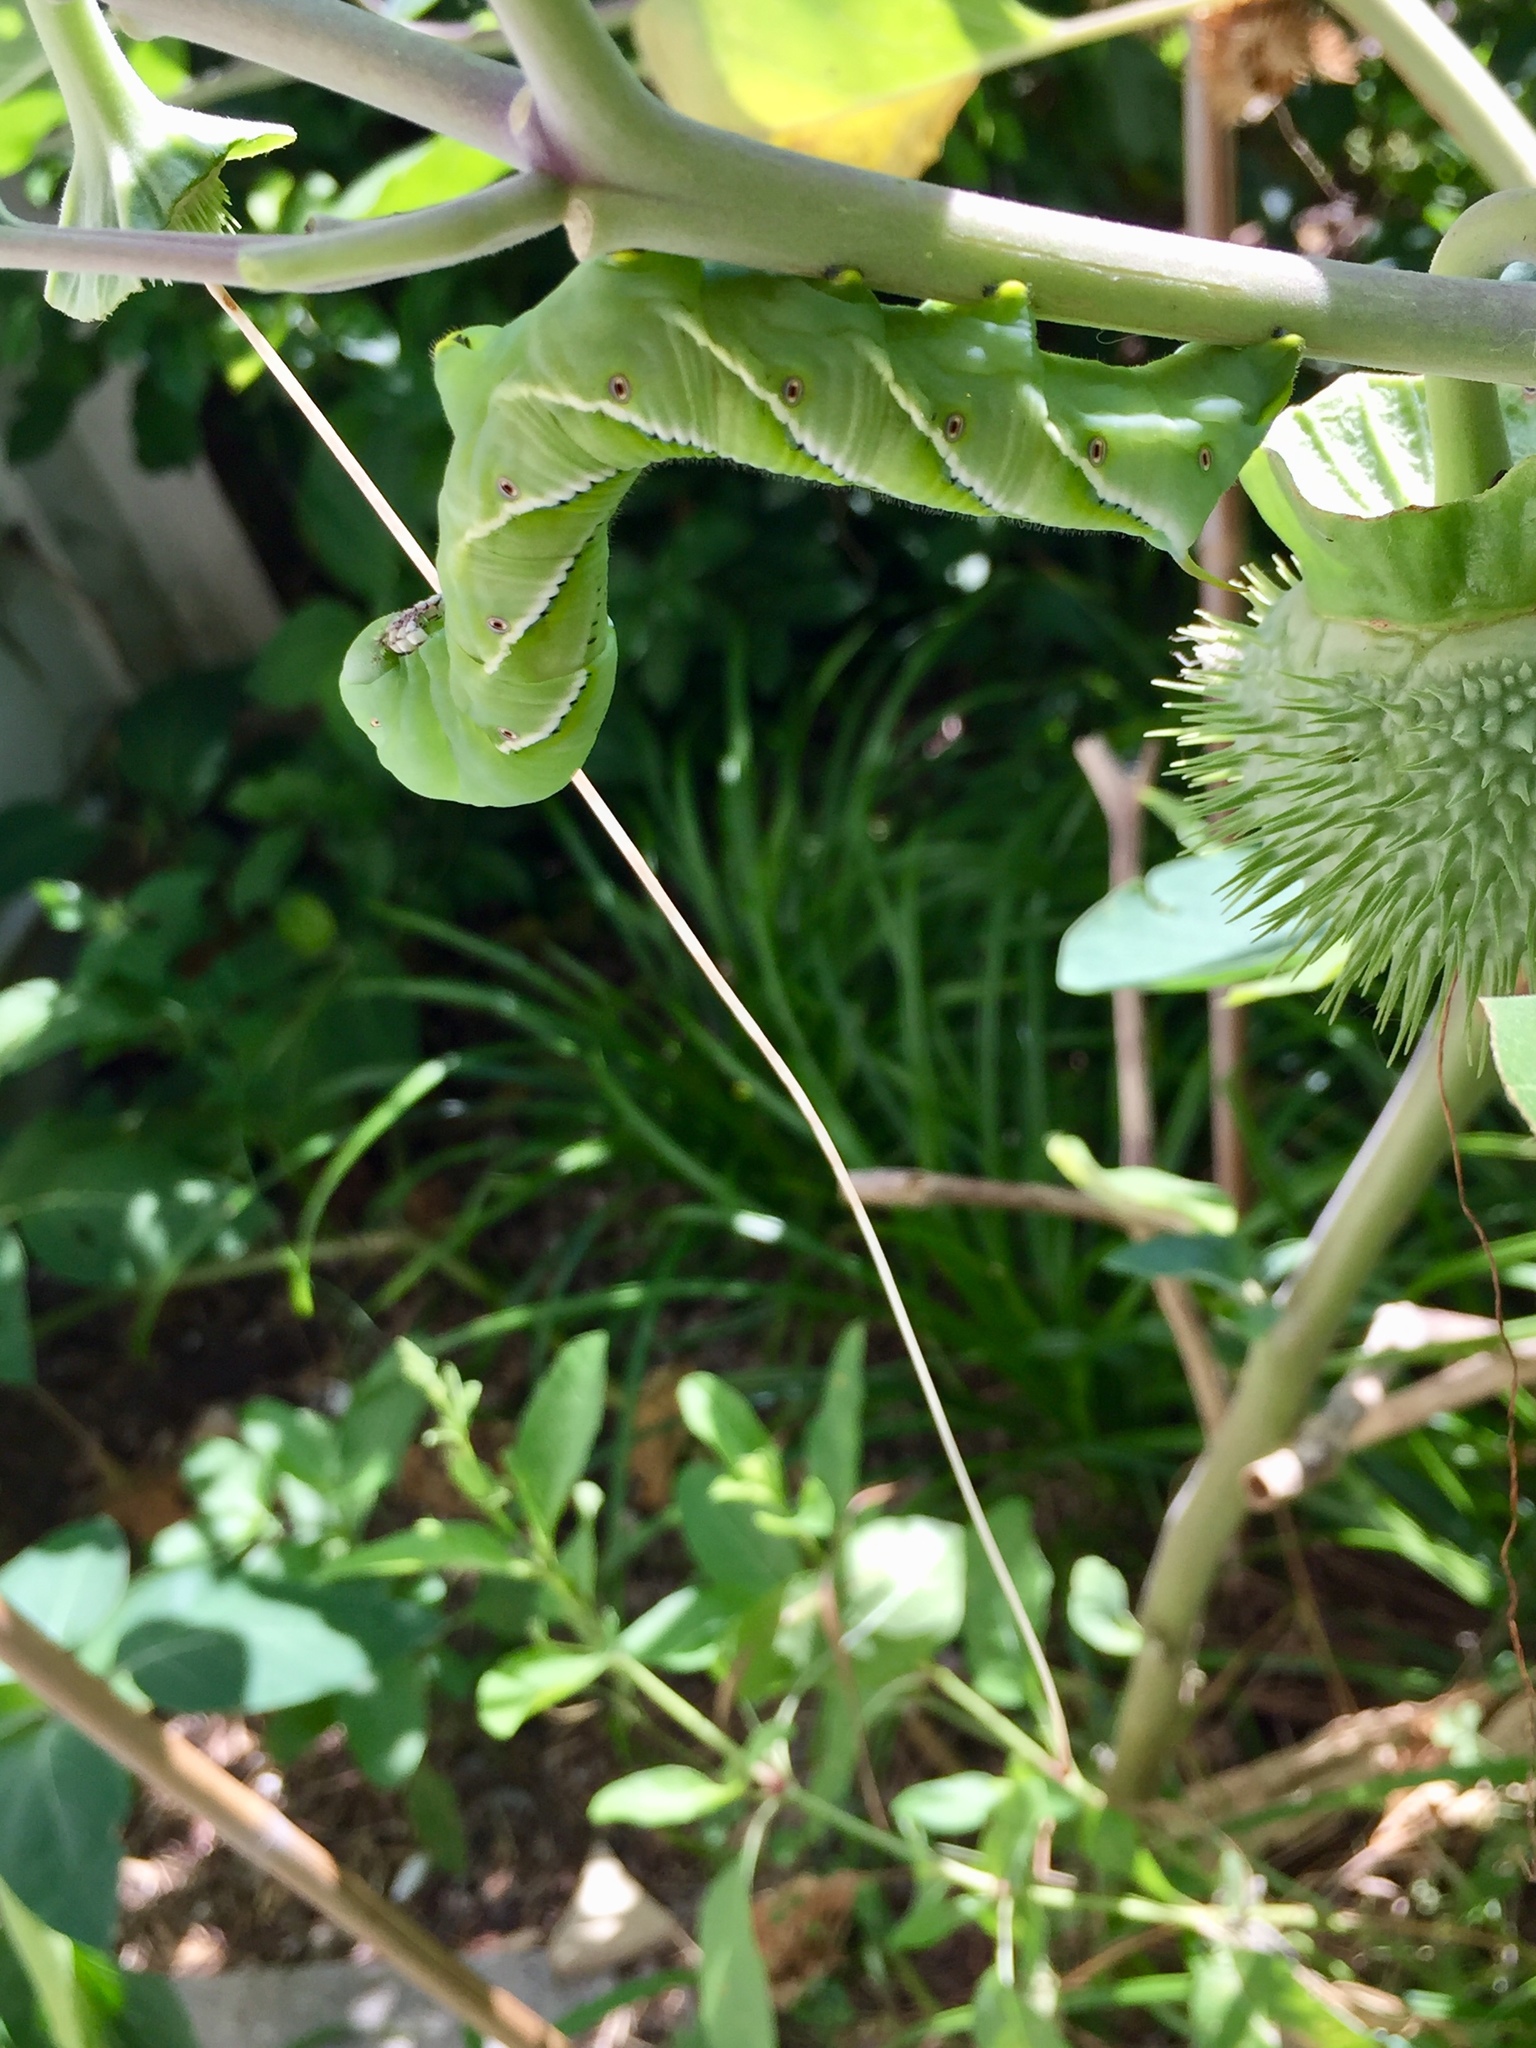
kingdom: Animalia
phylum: Arthropoda
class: Insecta
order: Lepidoptera
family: Sphingidae
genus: Manduca
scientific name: Manduca sexta
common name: Carolina sphinx
